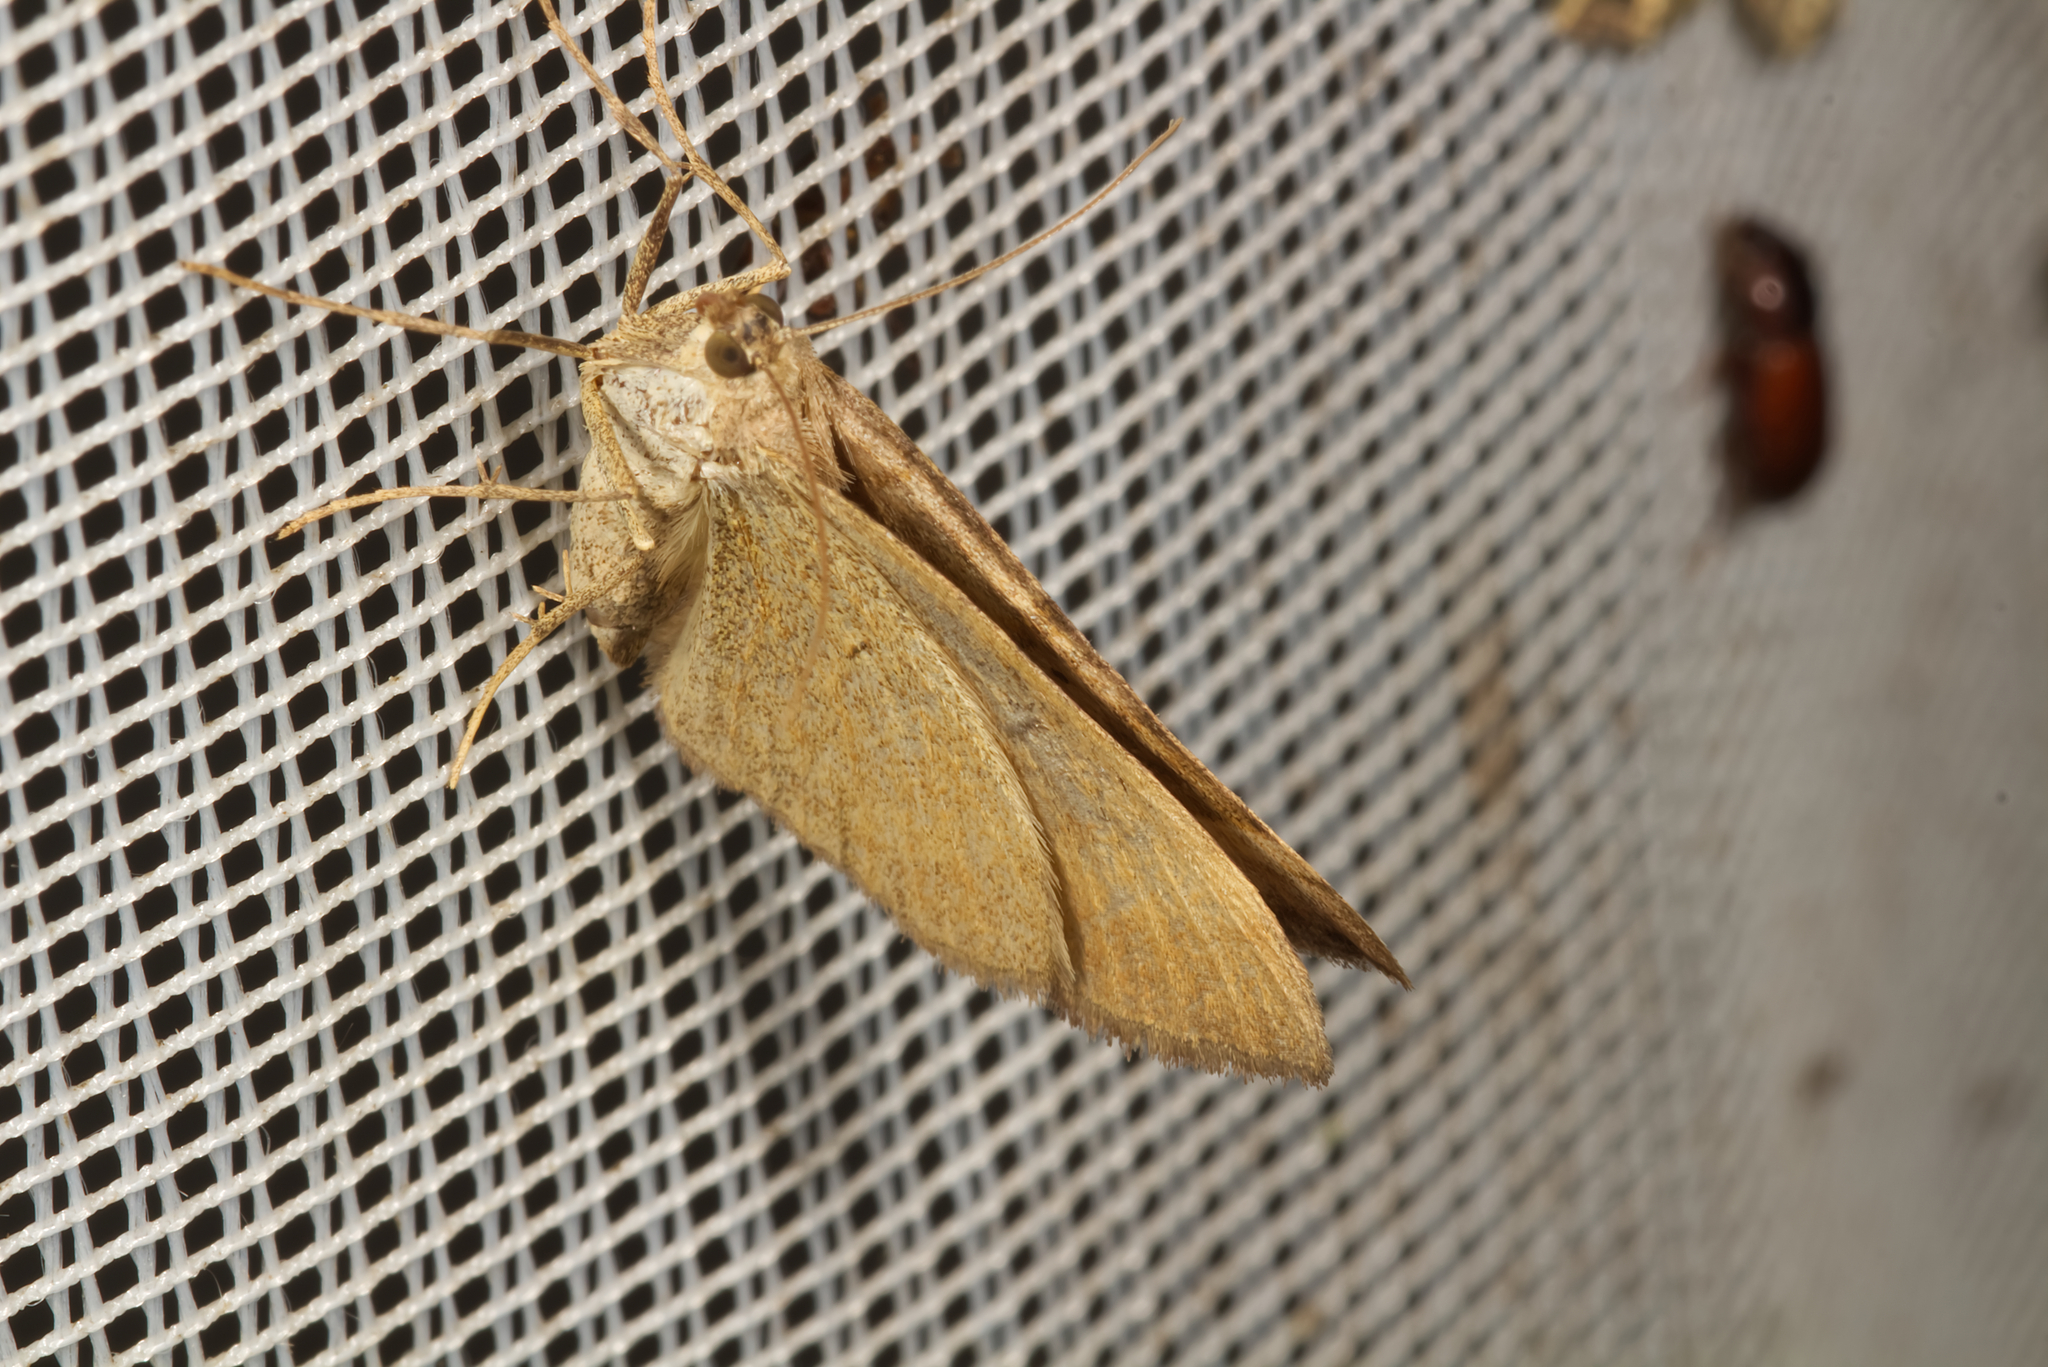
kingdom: Animalia
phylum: Arthropoda
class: Insecta
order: Lepidoptera
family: Geometridae
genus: Scotopteryx
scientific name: Scotopteryx chenopodiata
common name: Shaded broad-bar
